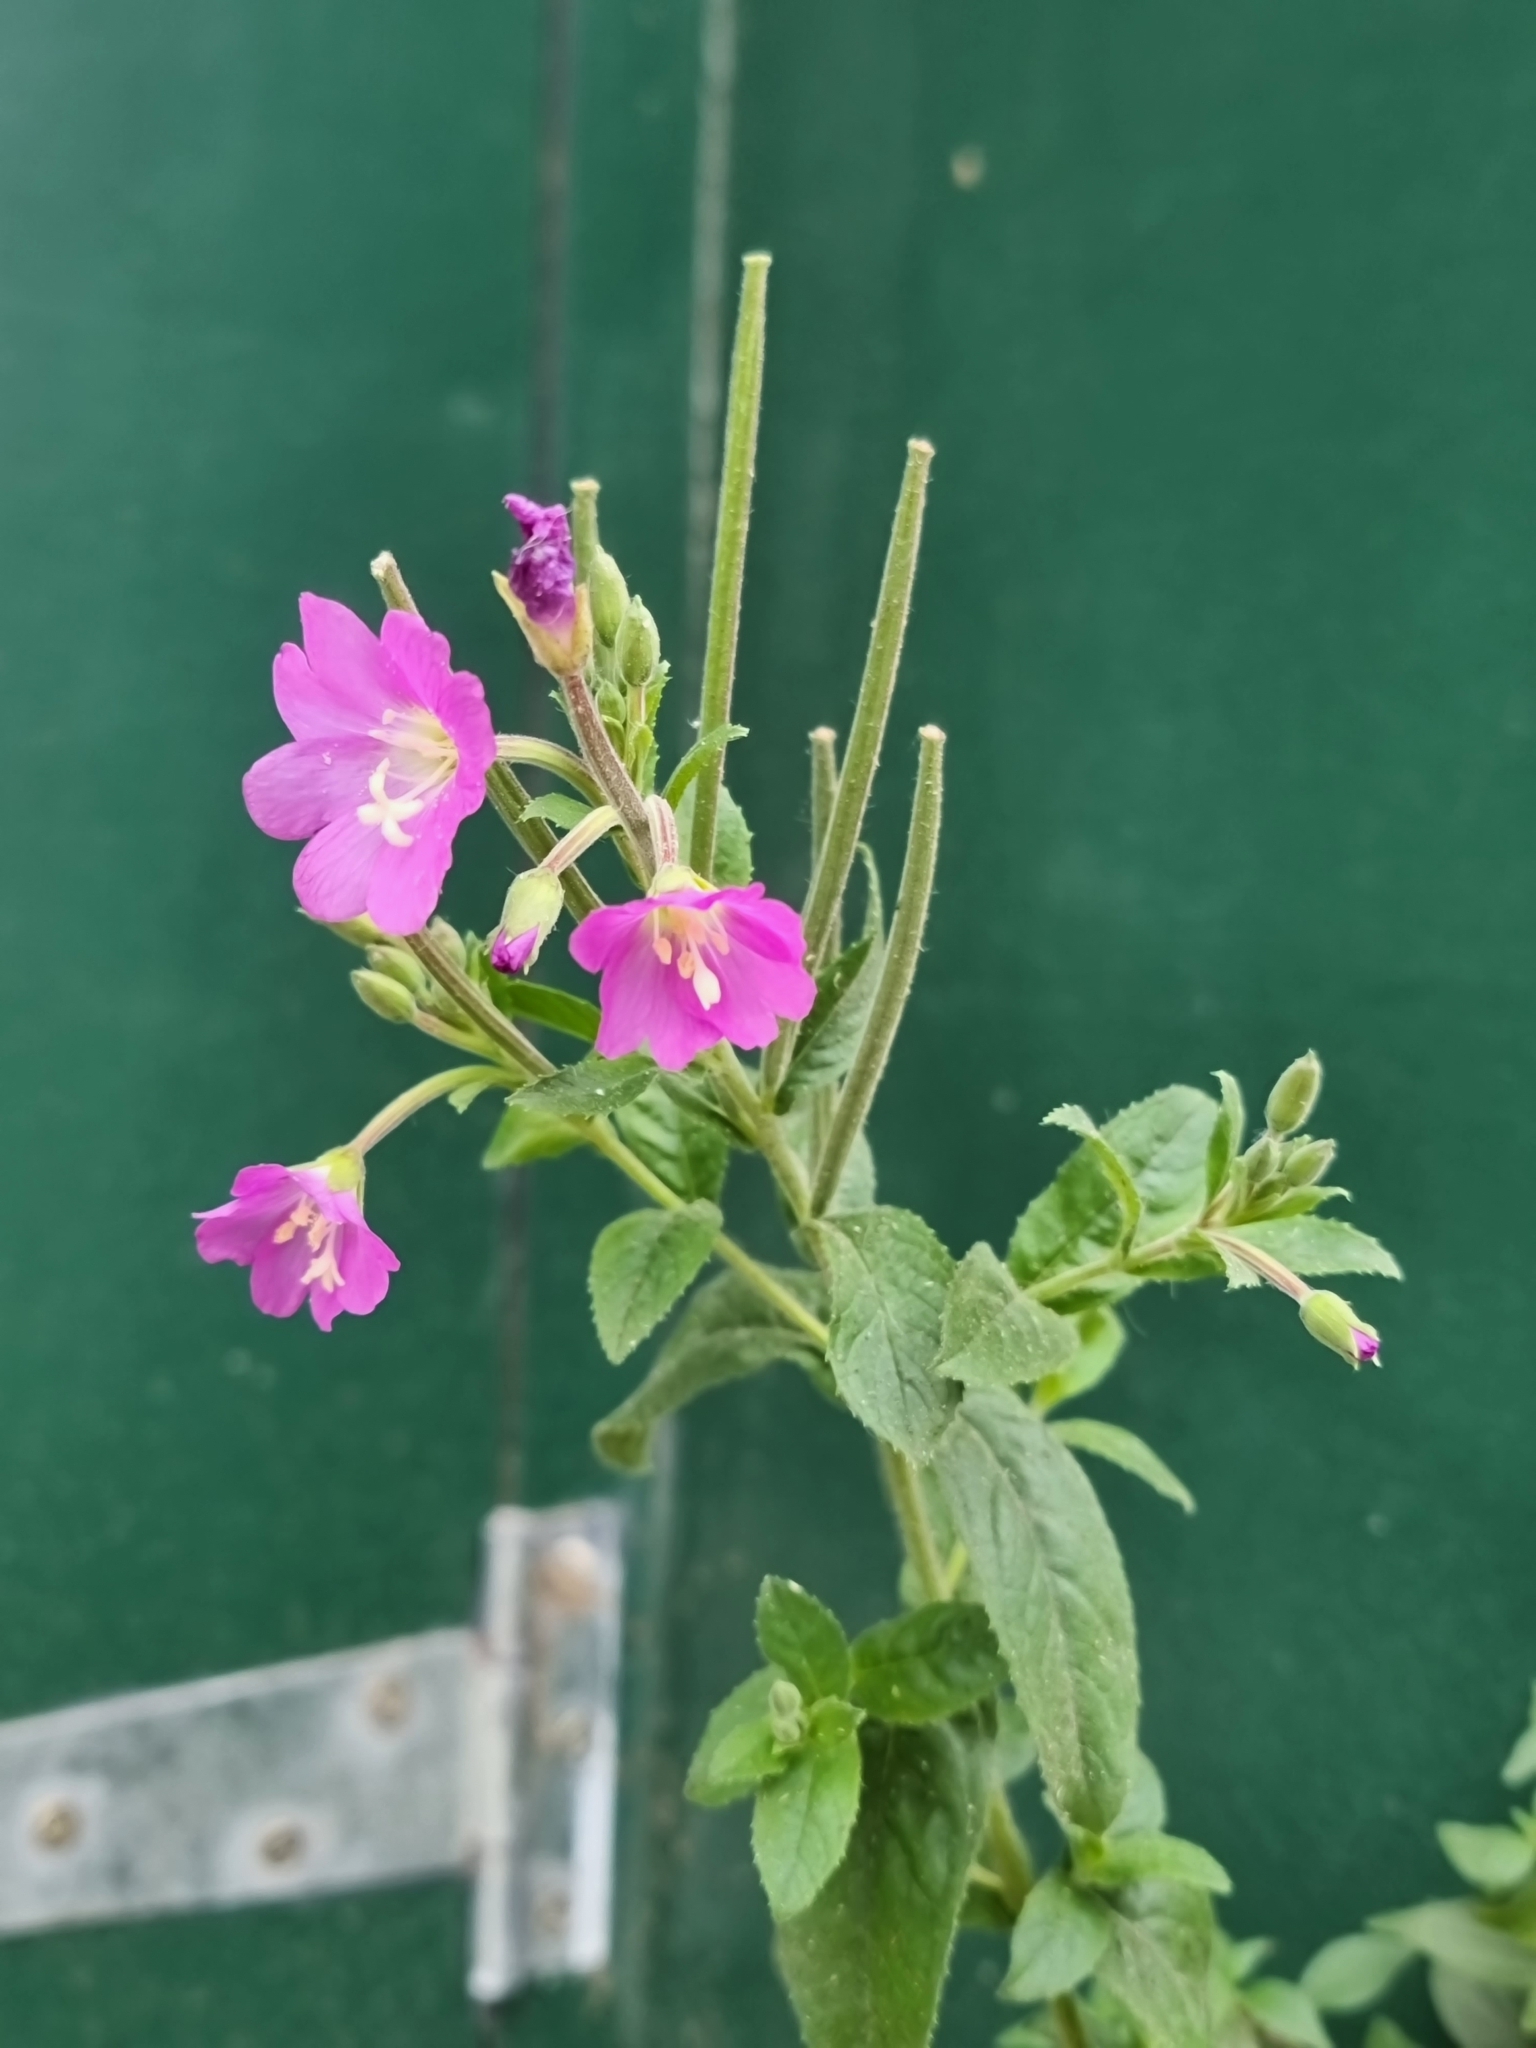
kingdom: Plantae
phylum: Tracheophyta
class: Magnoliopsida
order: Myrtales
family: Onagraceae
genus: Epilobium
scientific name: Epilobium hirsutum
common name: Great willowherb
